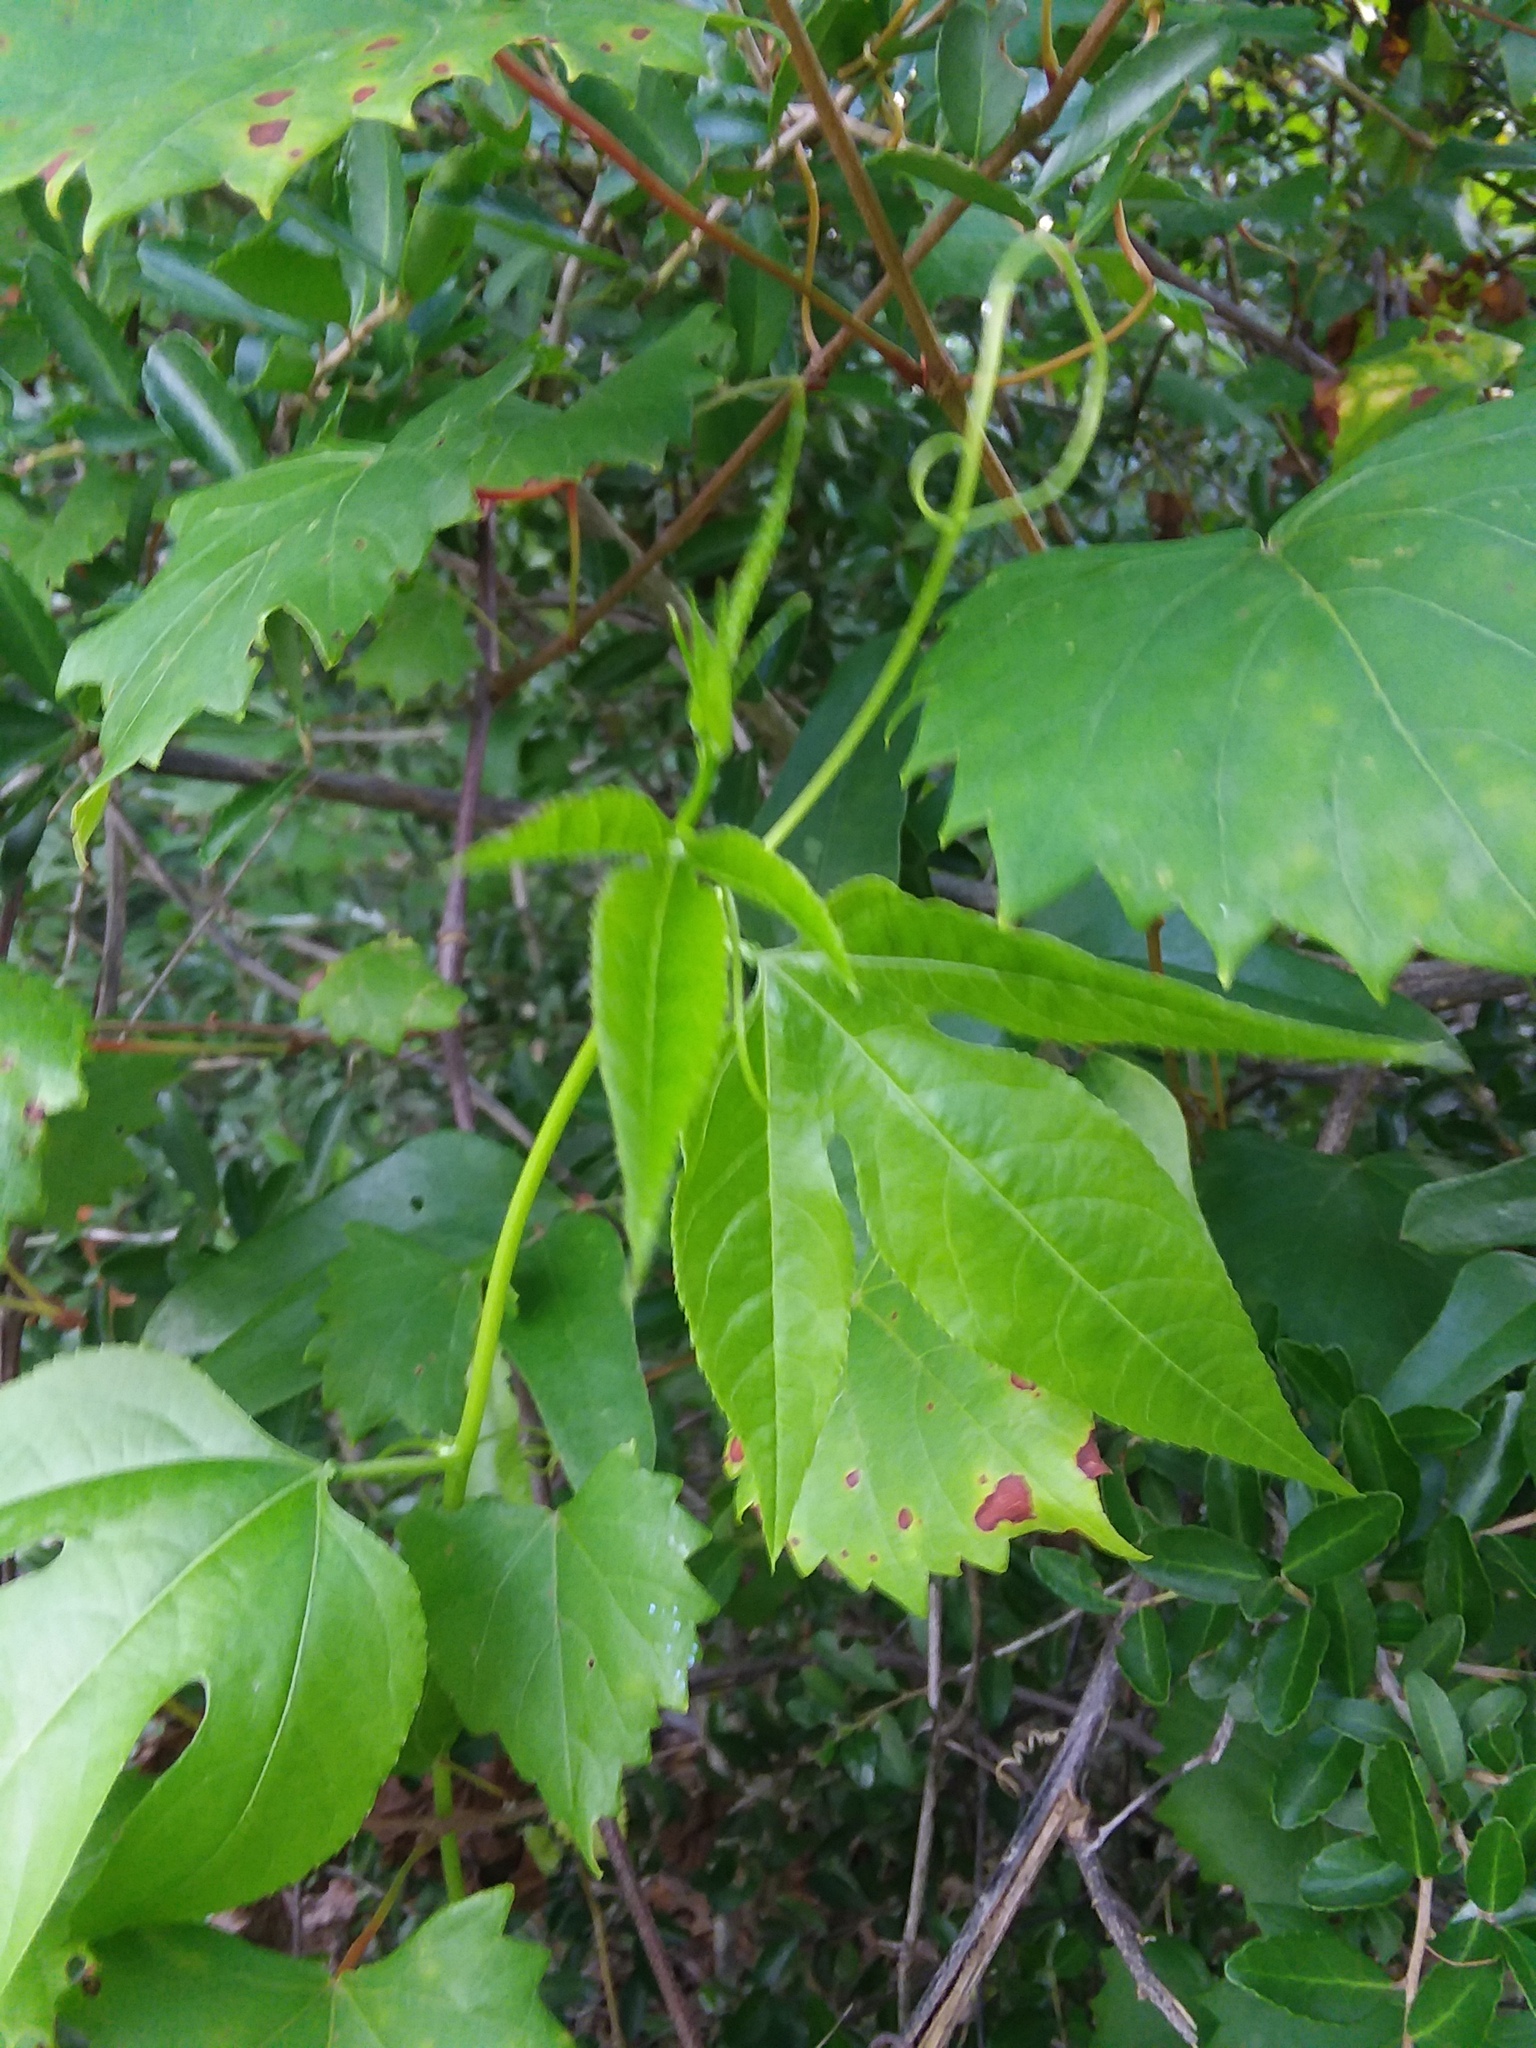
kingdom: Plantae
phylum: Tracheophyta
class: Magnoliopsida
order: Malpighiales
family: Passifloraceae
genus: Passiflora
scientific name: Passiflora incarnata
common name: Apricot-vine
